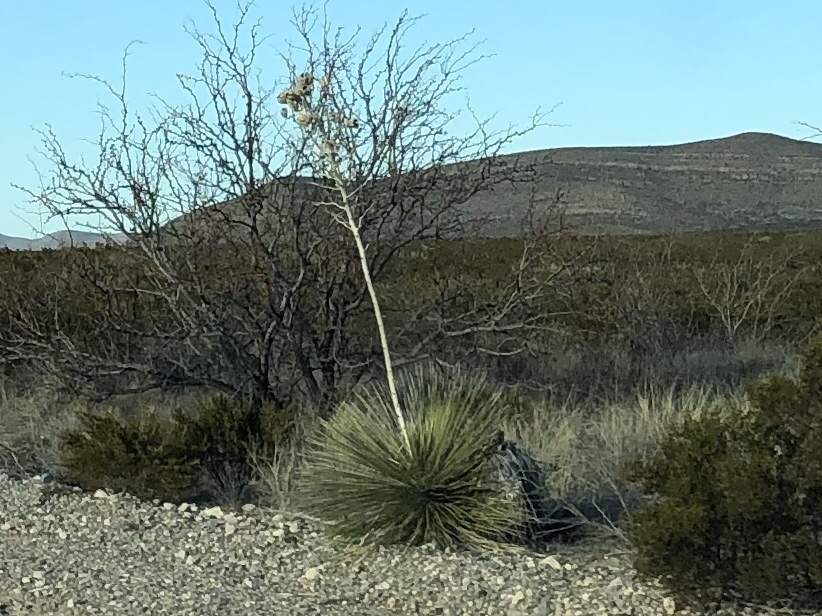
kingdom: Plantae
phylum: Tracheophyta
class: Liliopsida
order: Asparagales
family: Asparagaceae
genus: Yucca
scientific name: Yucca elata
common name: Palmella
